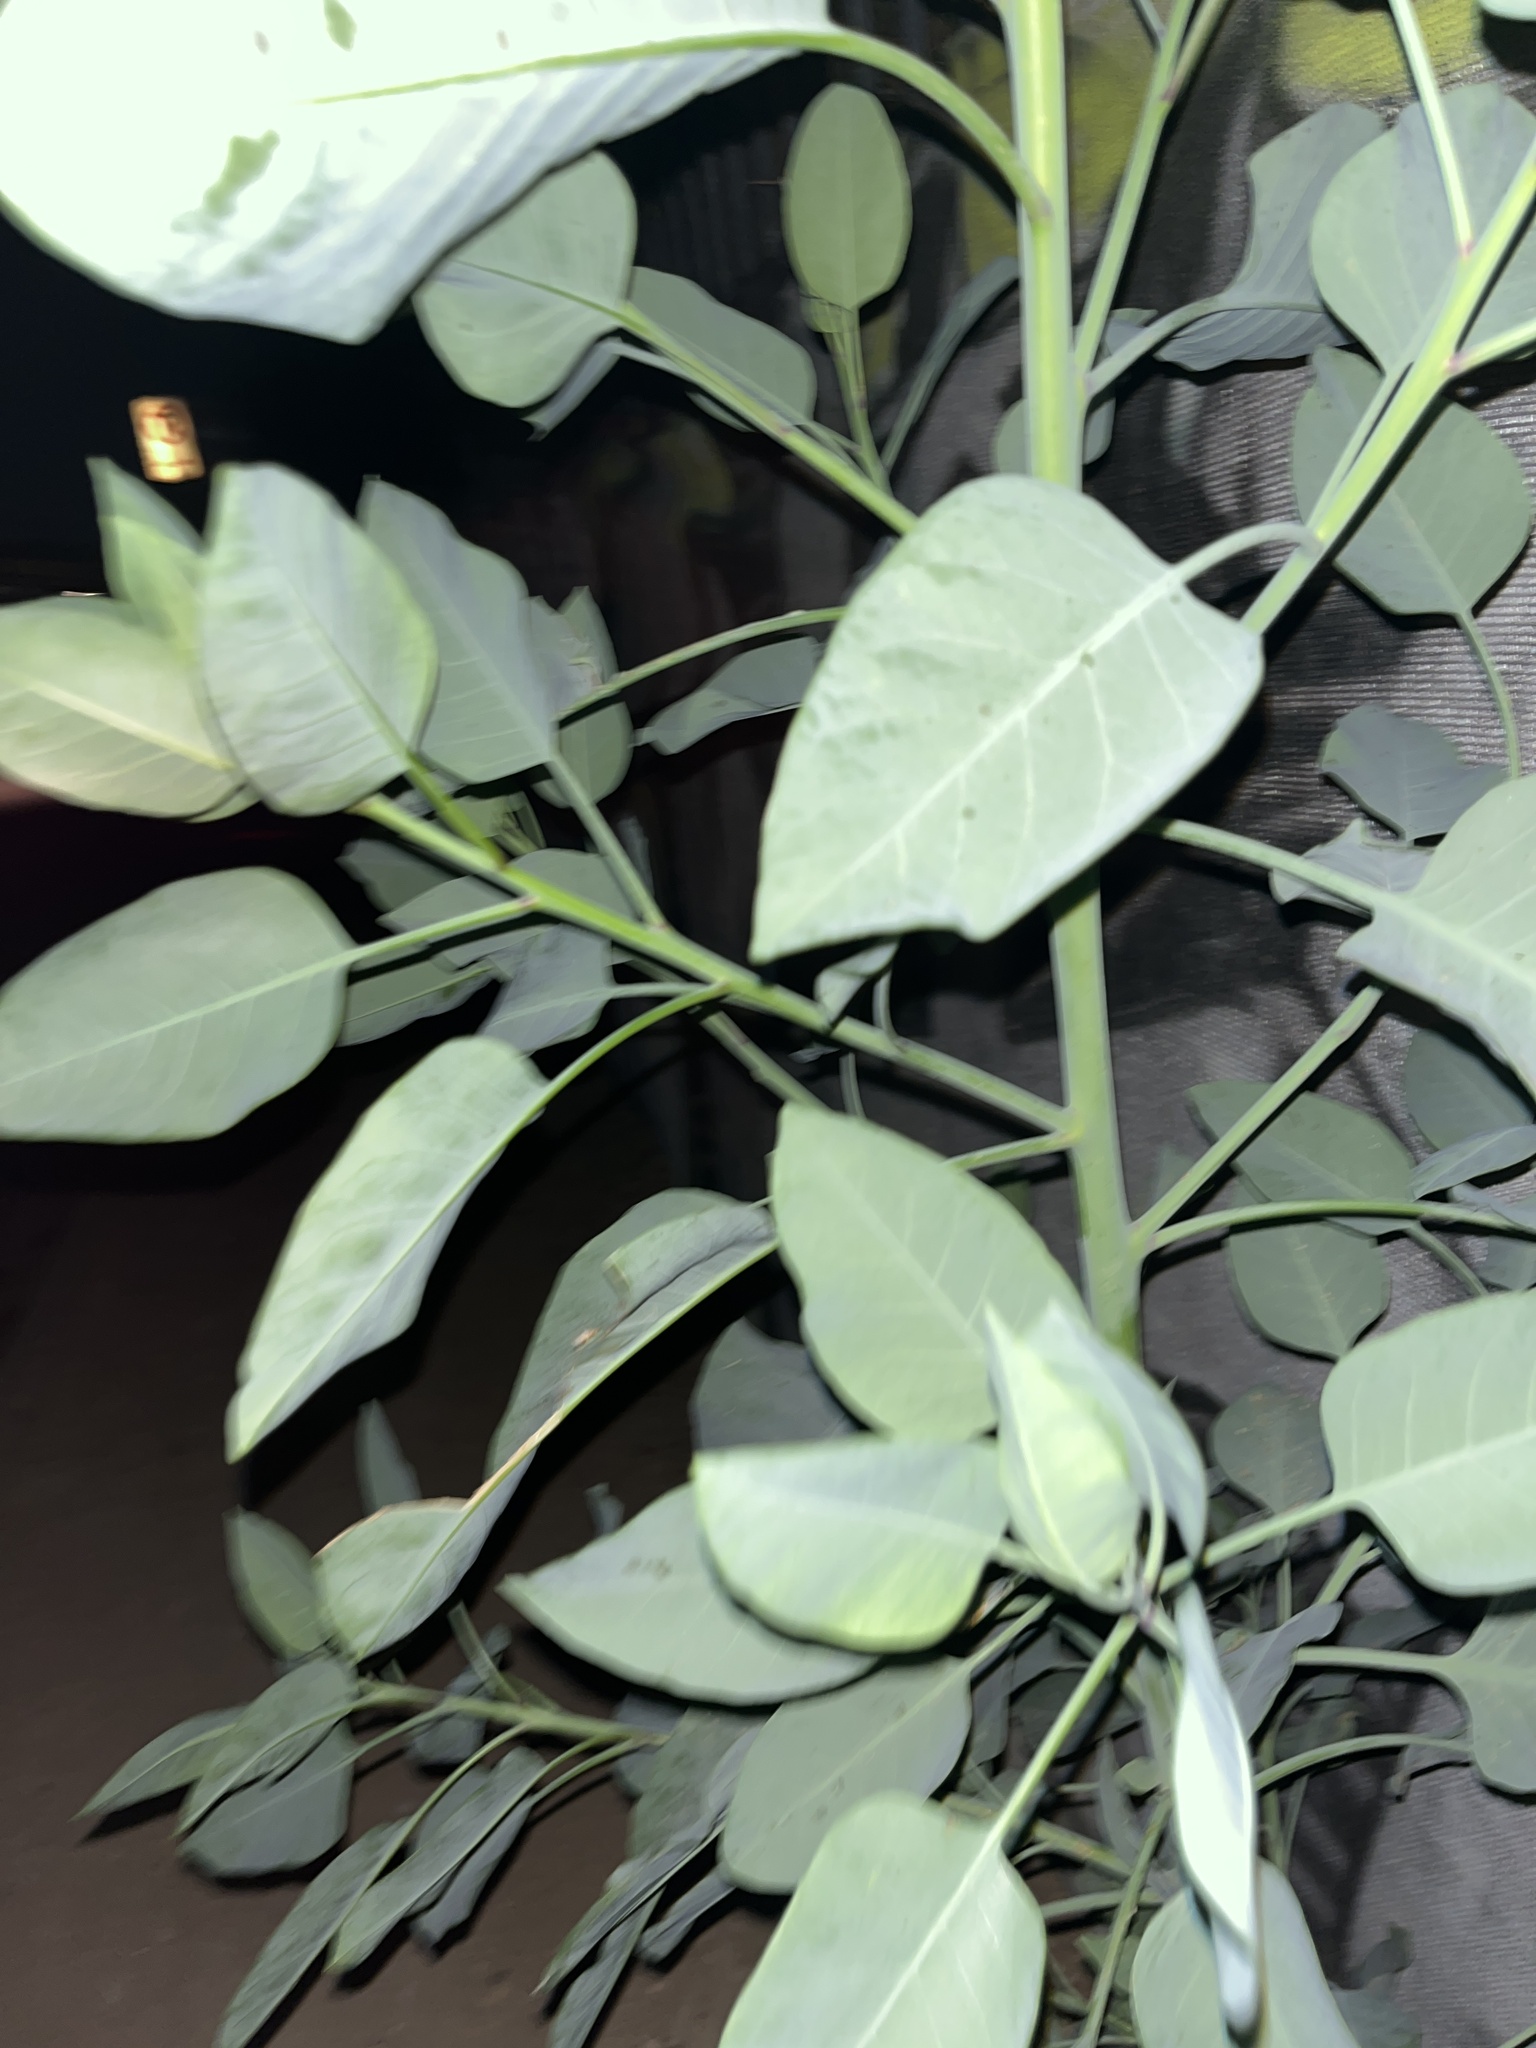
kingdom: Plantae
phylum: Tracheophyta
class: Magnoliopsida
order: Solanales
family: Solanaceae
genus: Nicotiana
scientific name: Nicotiana glauca
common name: Tree tobacco
